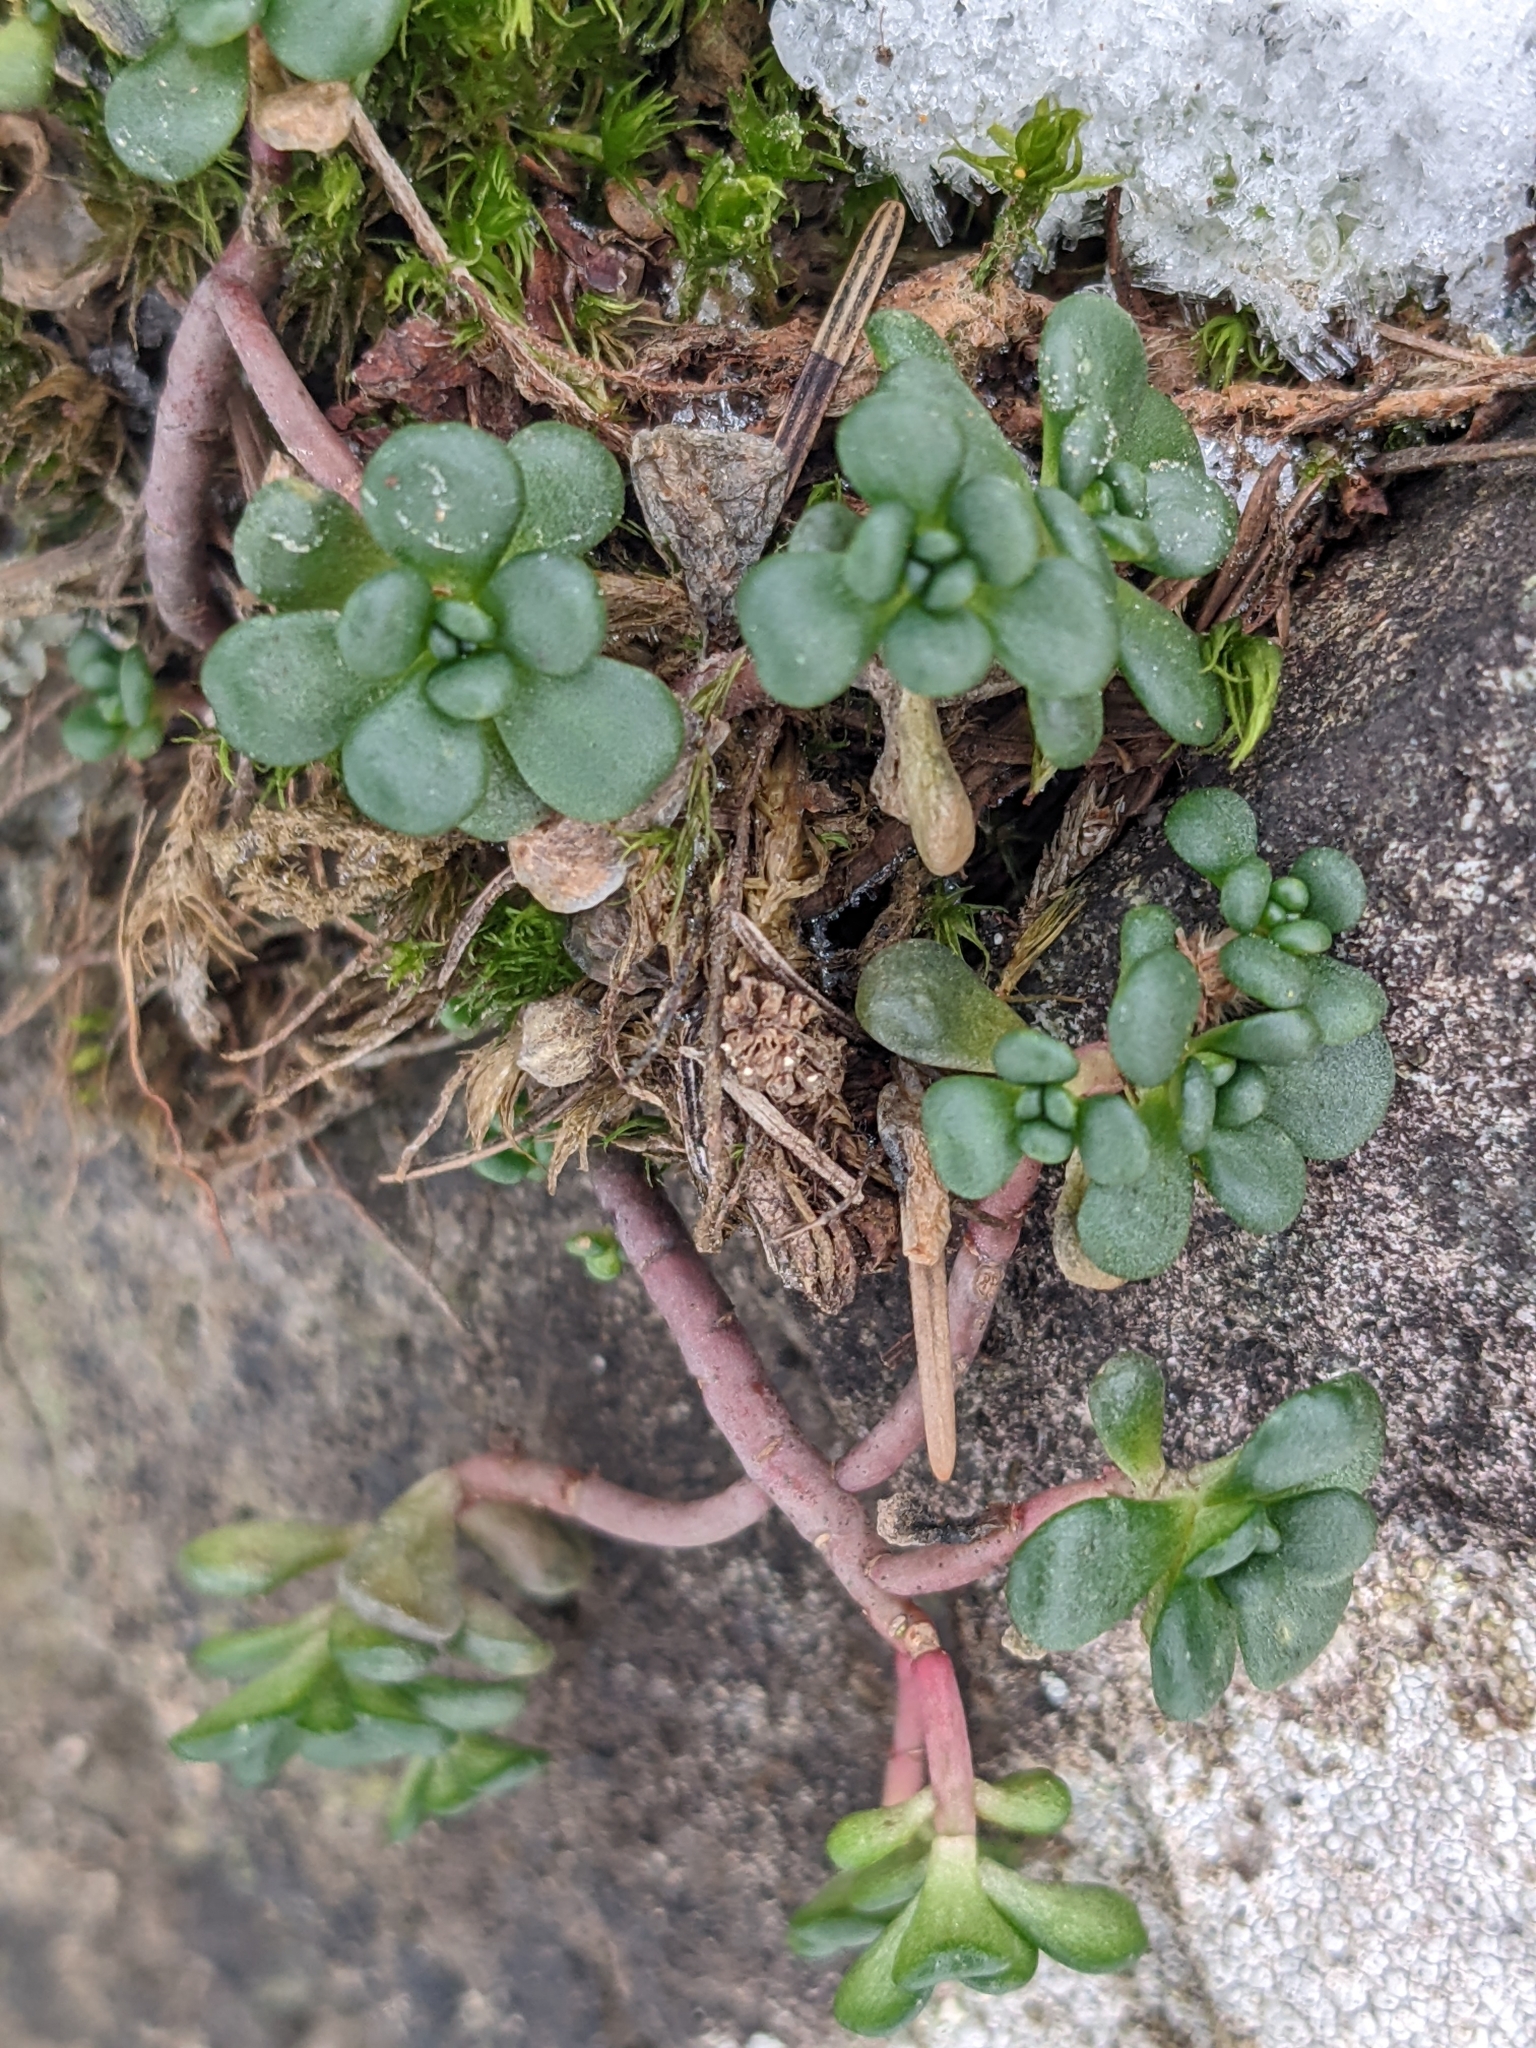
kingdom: Plantae
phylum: Tracheophyta
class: Magnoliopsida
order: Saxifragales
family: Crassulaceae
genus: Sedum
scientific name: Sedum oreganum
